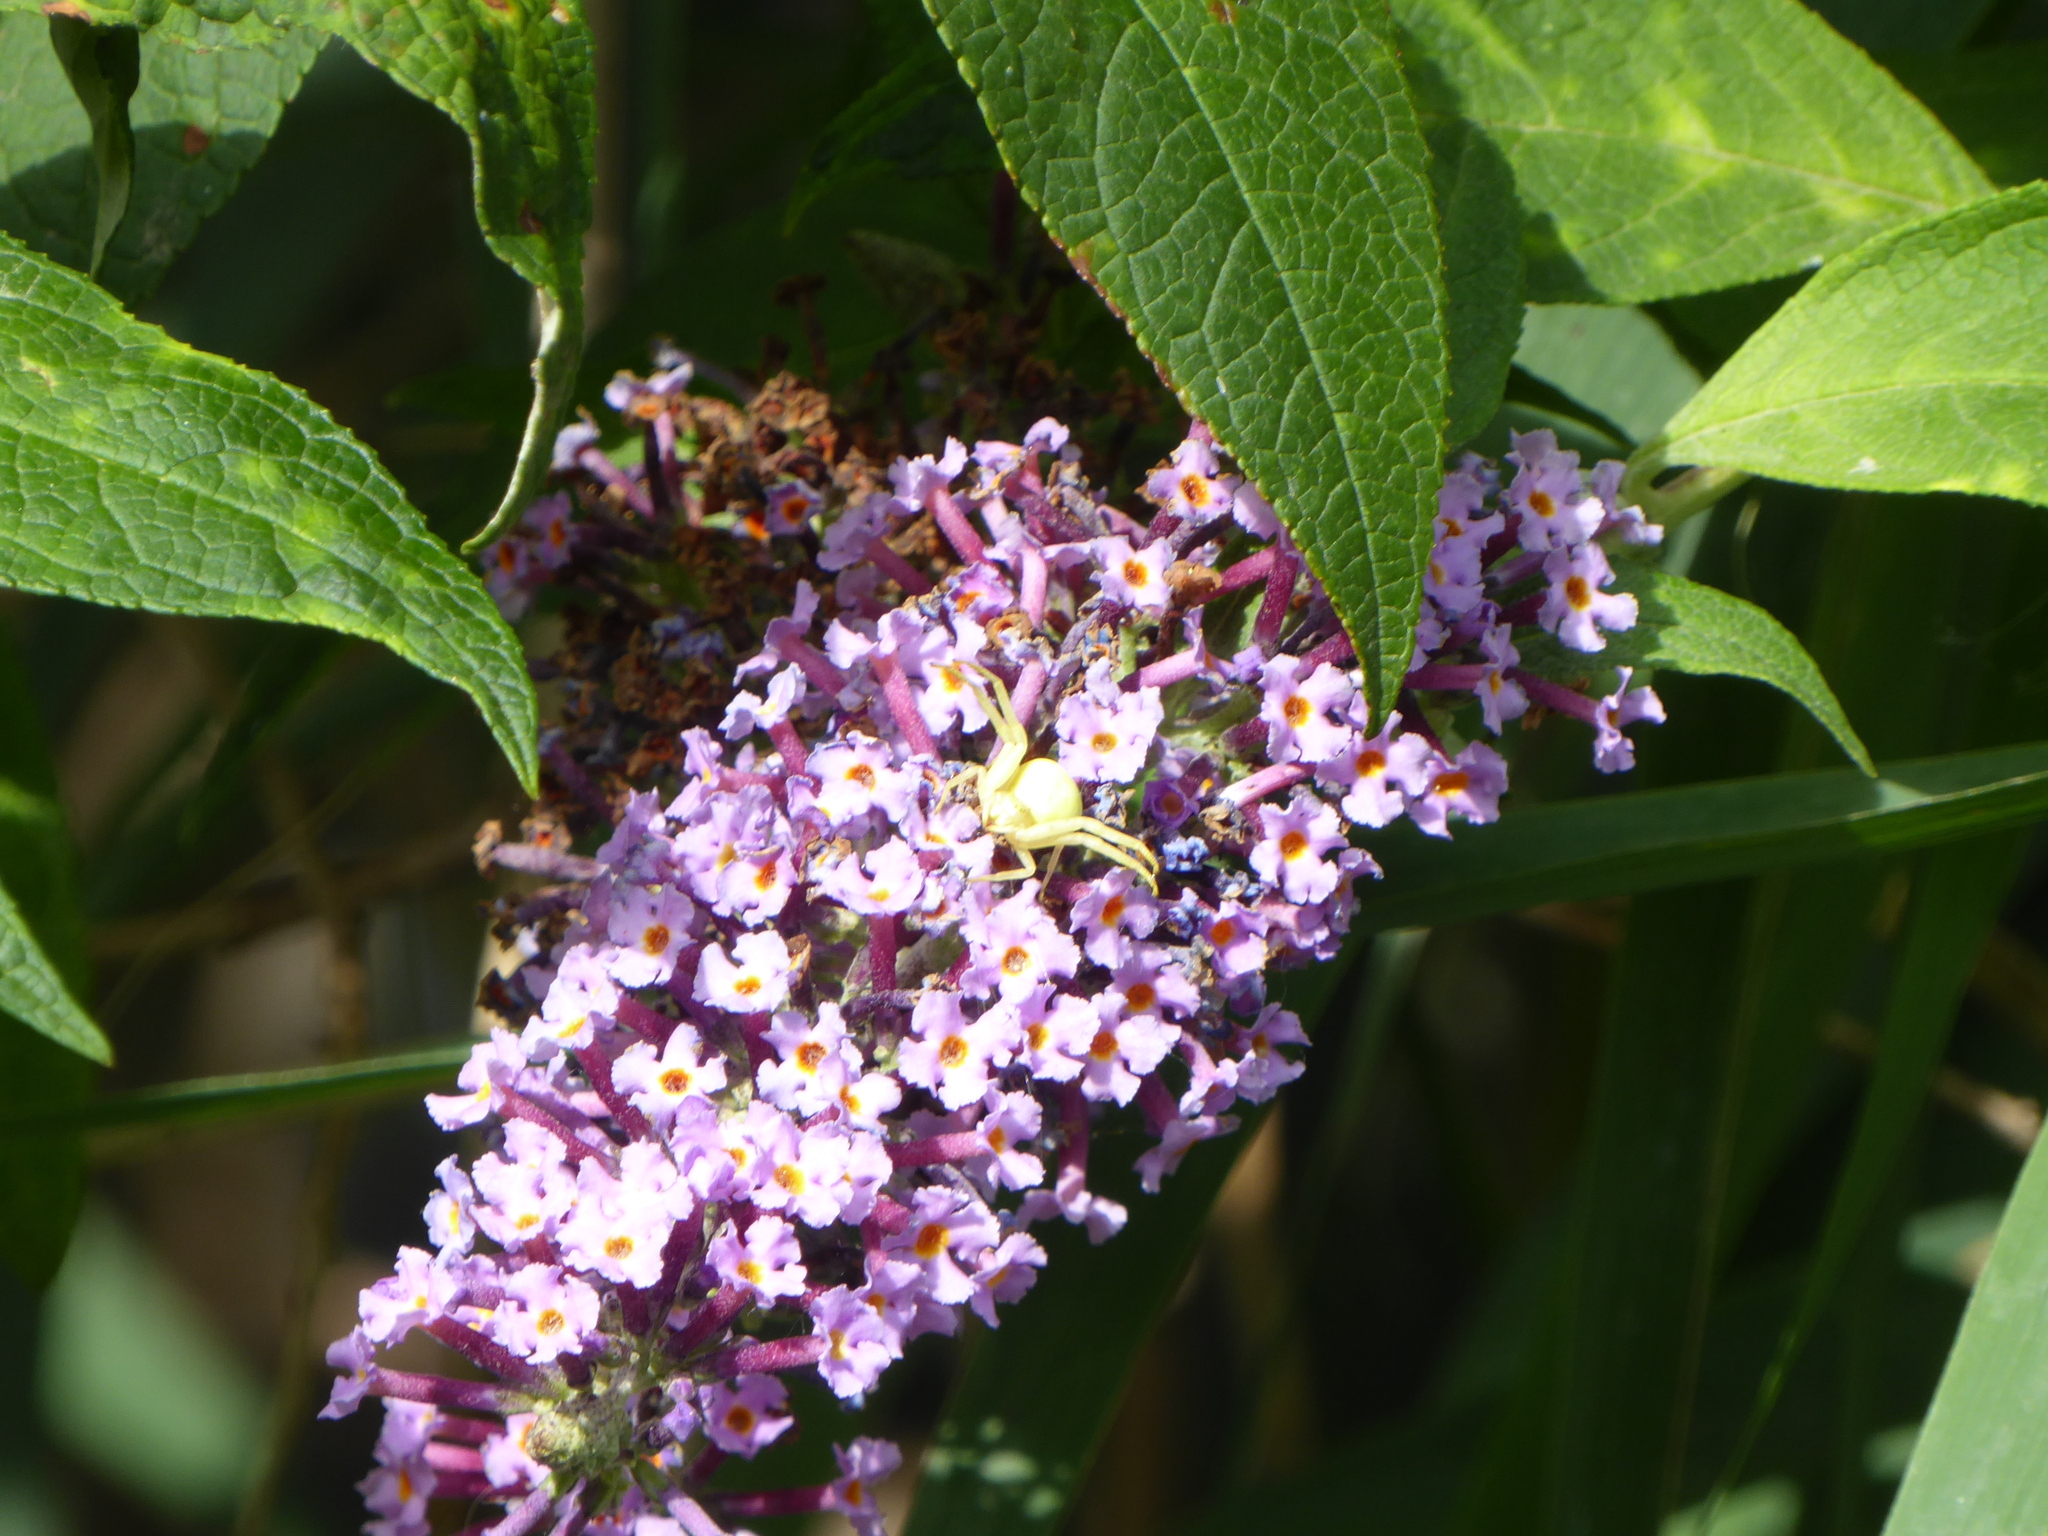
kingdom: Animalia
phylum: Arthropoda
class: Arachnida
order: Araneae
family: Thomisidae
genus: Misumena
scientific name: Misumena vatia
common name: Goldenrod crab spider
